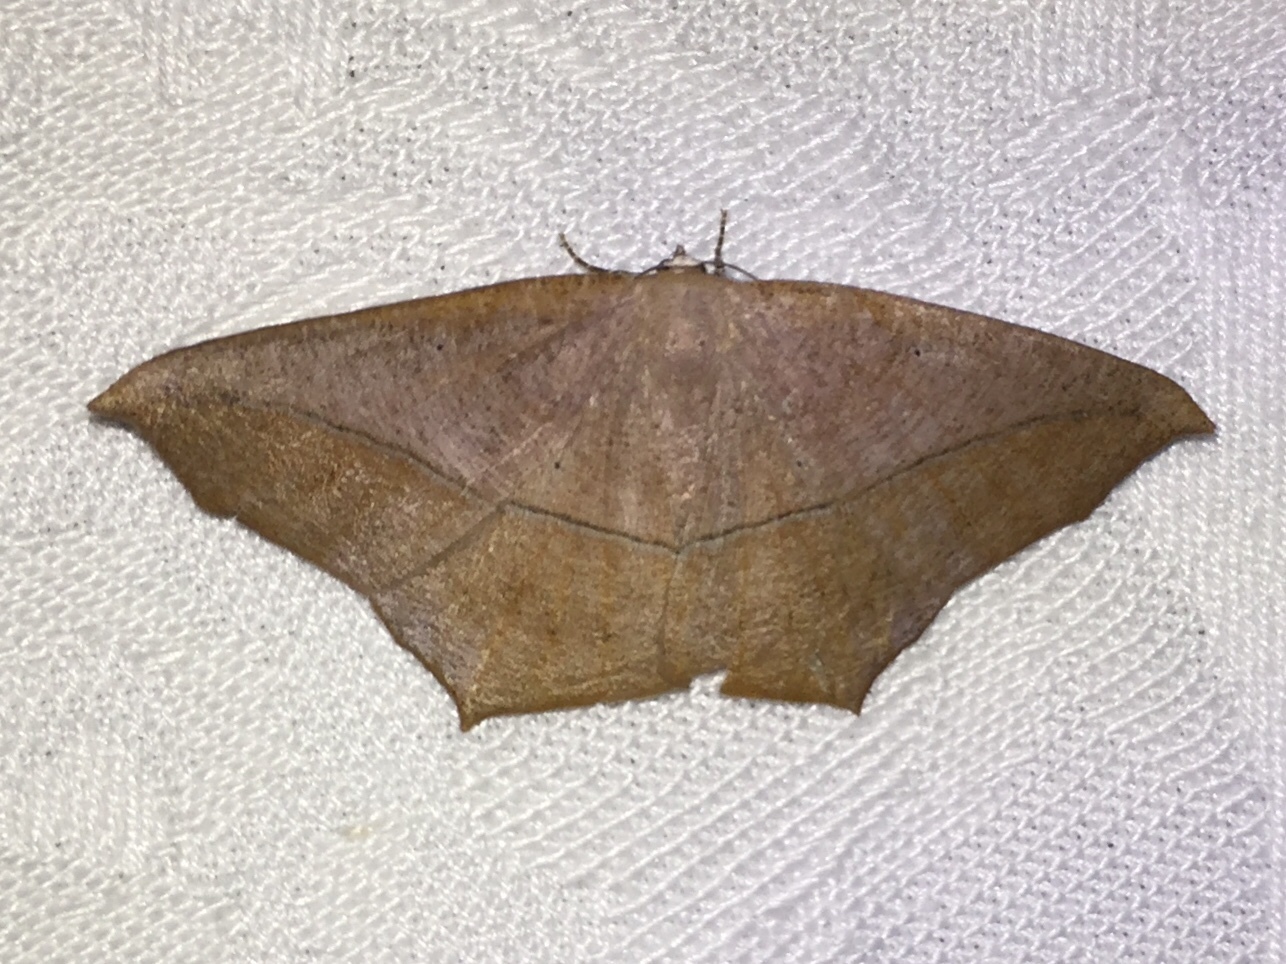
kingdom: Animalia
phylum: Arthropoda
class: Insecta
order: Lepidoptera
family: Geometridae
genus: Prochoerodes
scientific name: Prochoerodes lineola
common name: Large maple spanworm
